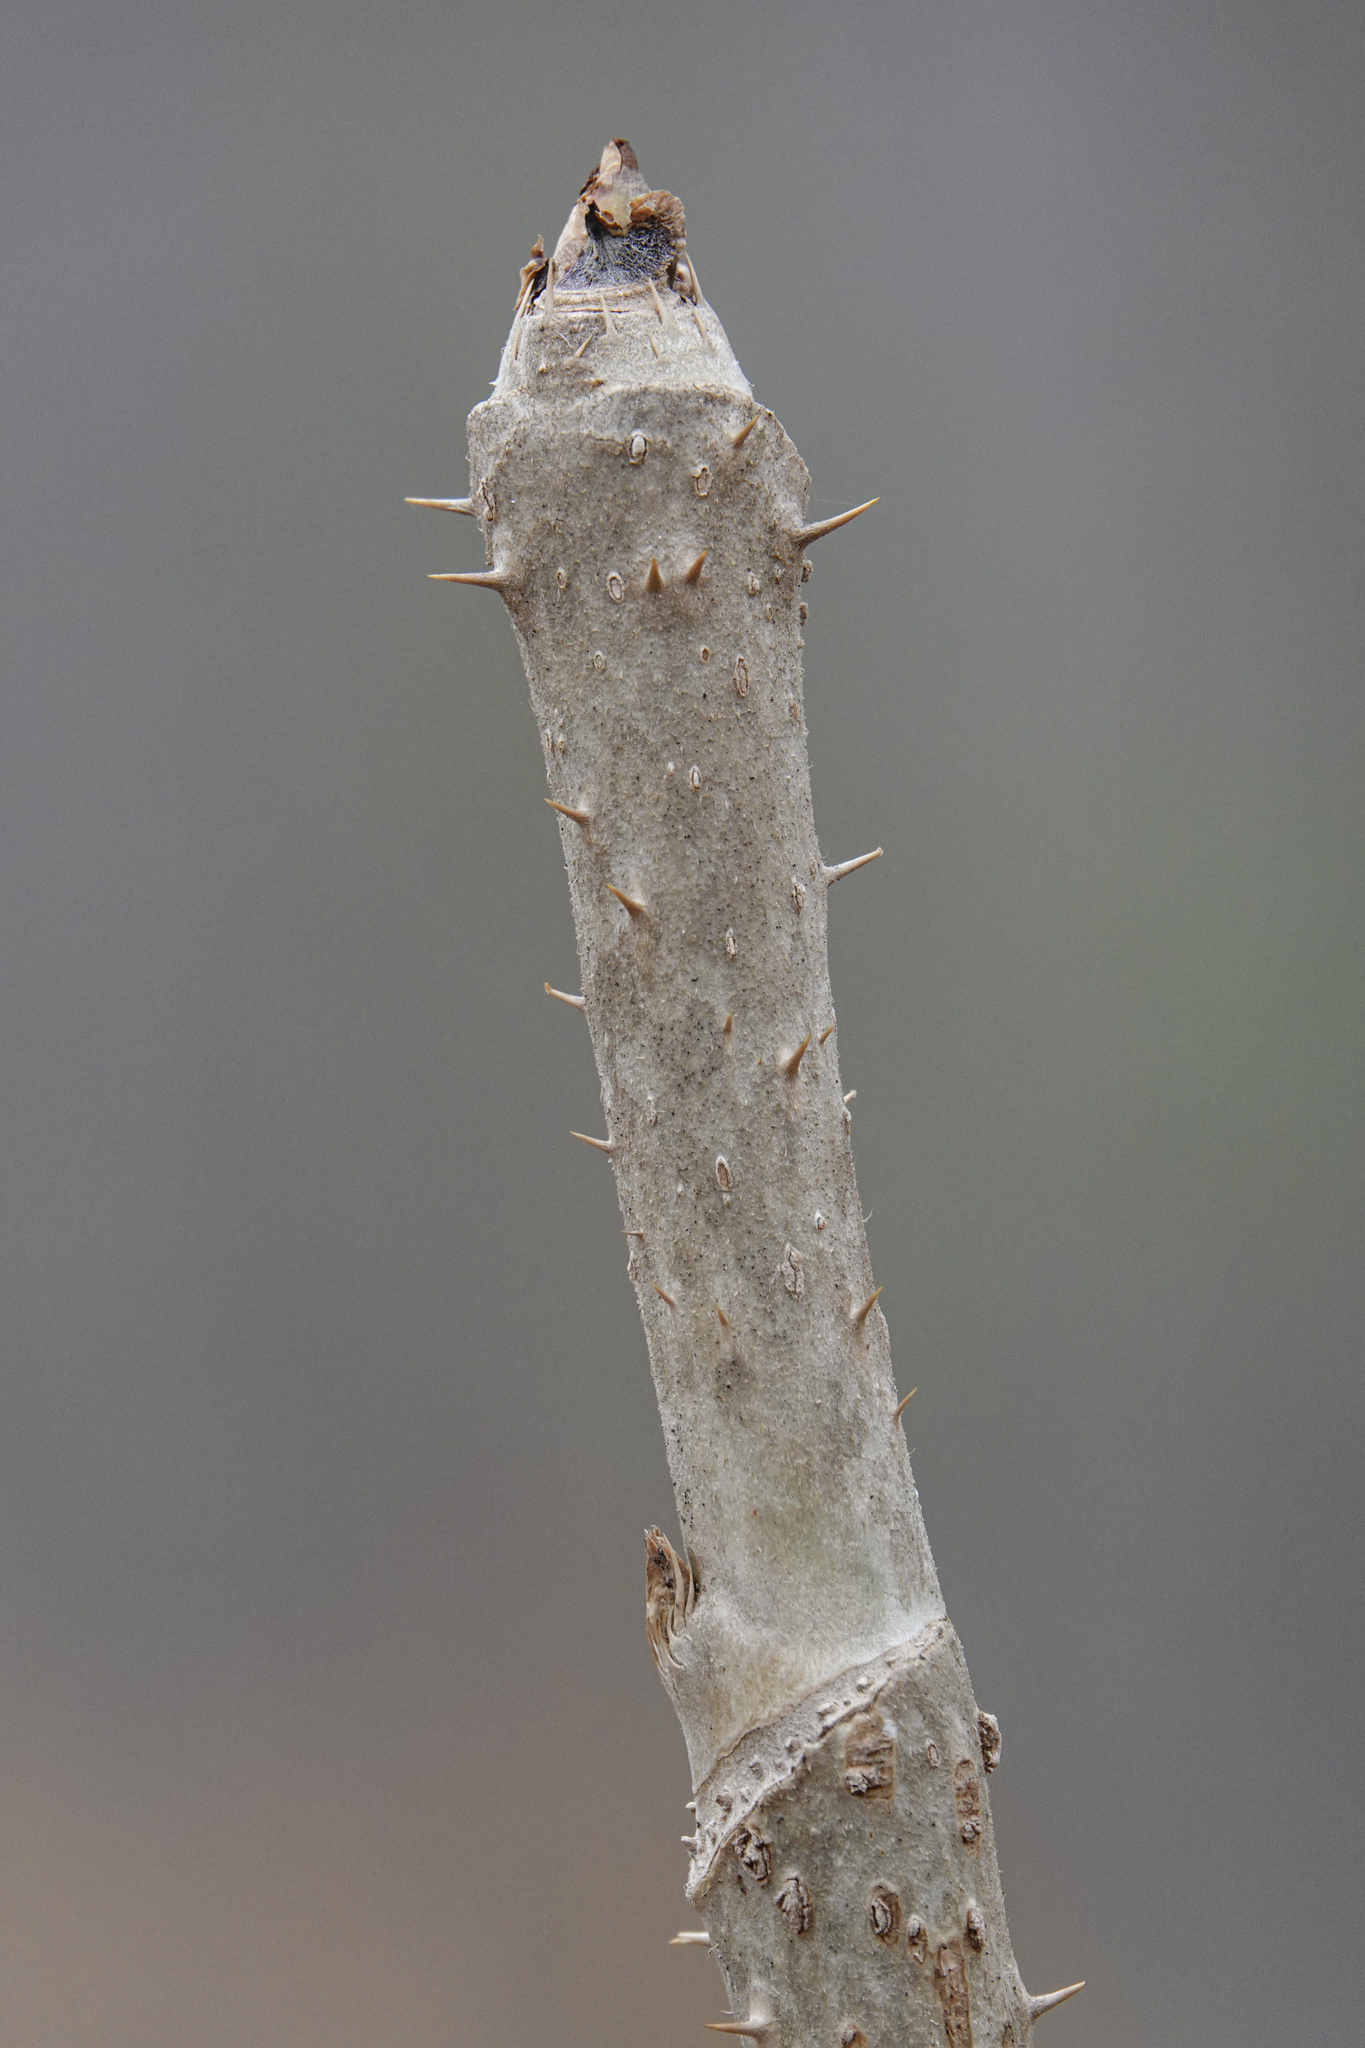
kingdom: Plantae
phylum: Tracheophyta
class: Magnoliopsida
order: Apiales
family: Araliaceae
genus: Aralia
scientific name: Aralia elata
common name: Japanese angelica-tree
